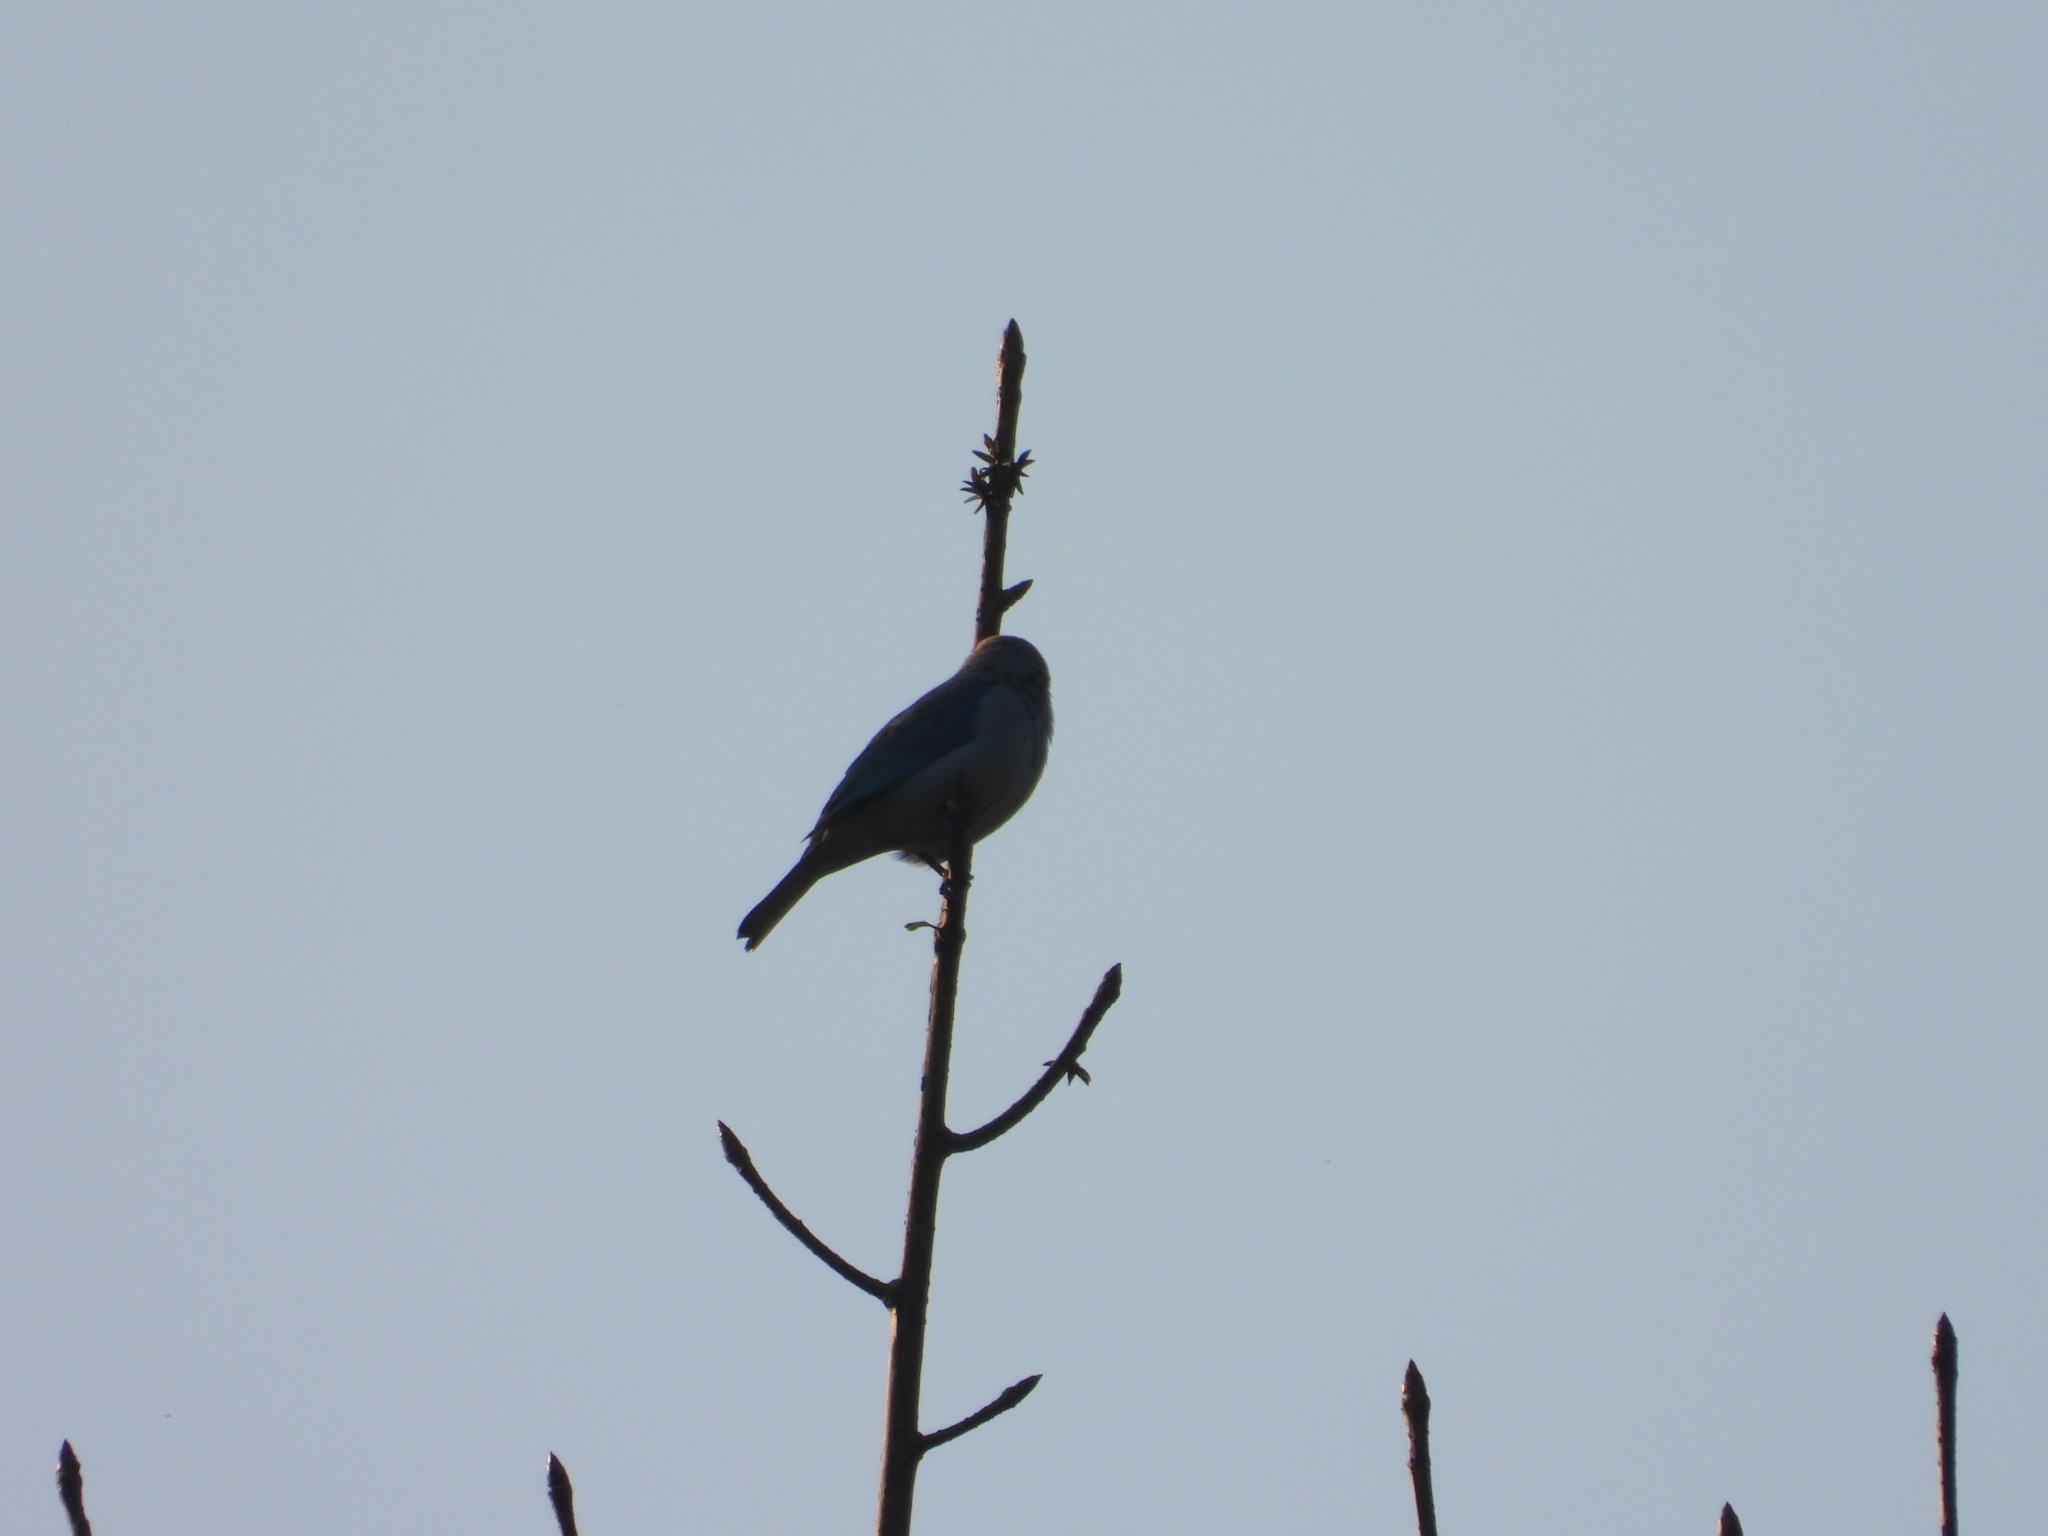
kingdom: Animalia
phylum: Chordata
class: Aves
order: Passeriformes
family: Thraupidae
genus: Thraupis
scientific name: Thraupis episcopus
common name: Blue-grey tanager
